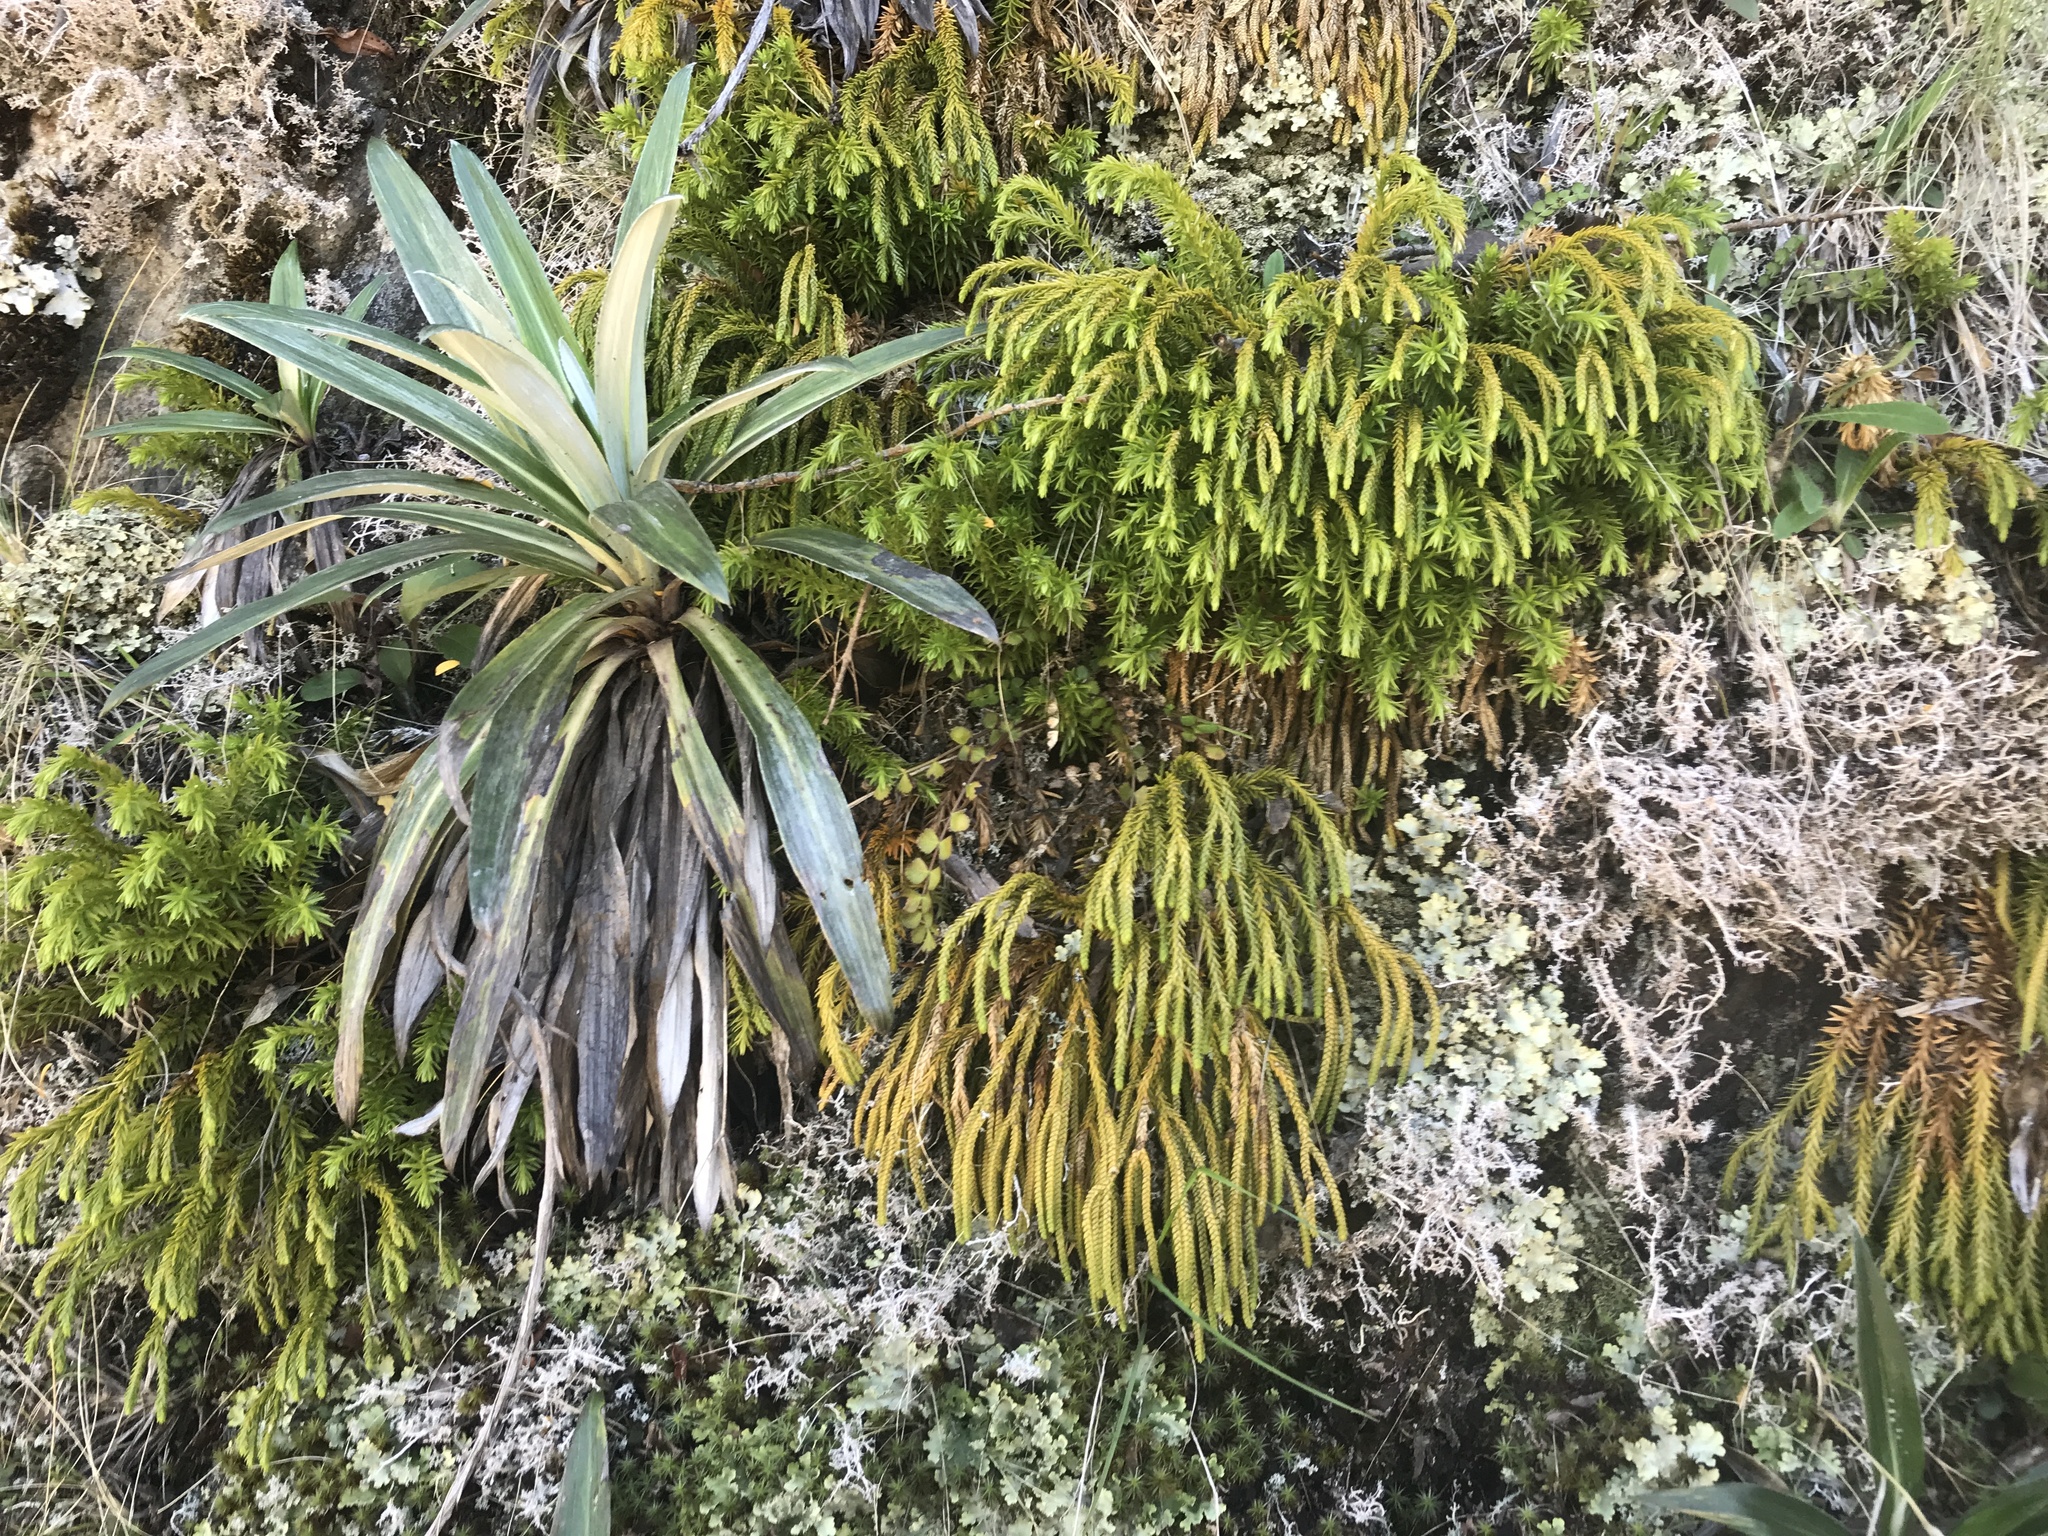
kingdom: Plantae
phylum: Tracheophyta
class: Lycopodiopsida
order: Lycopodiales
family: Lycopodiaceae
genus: Phlegmariurus
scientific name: Phlegmariurus varius
